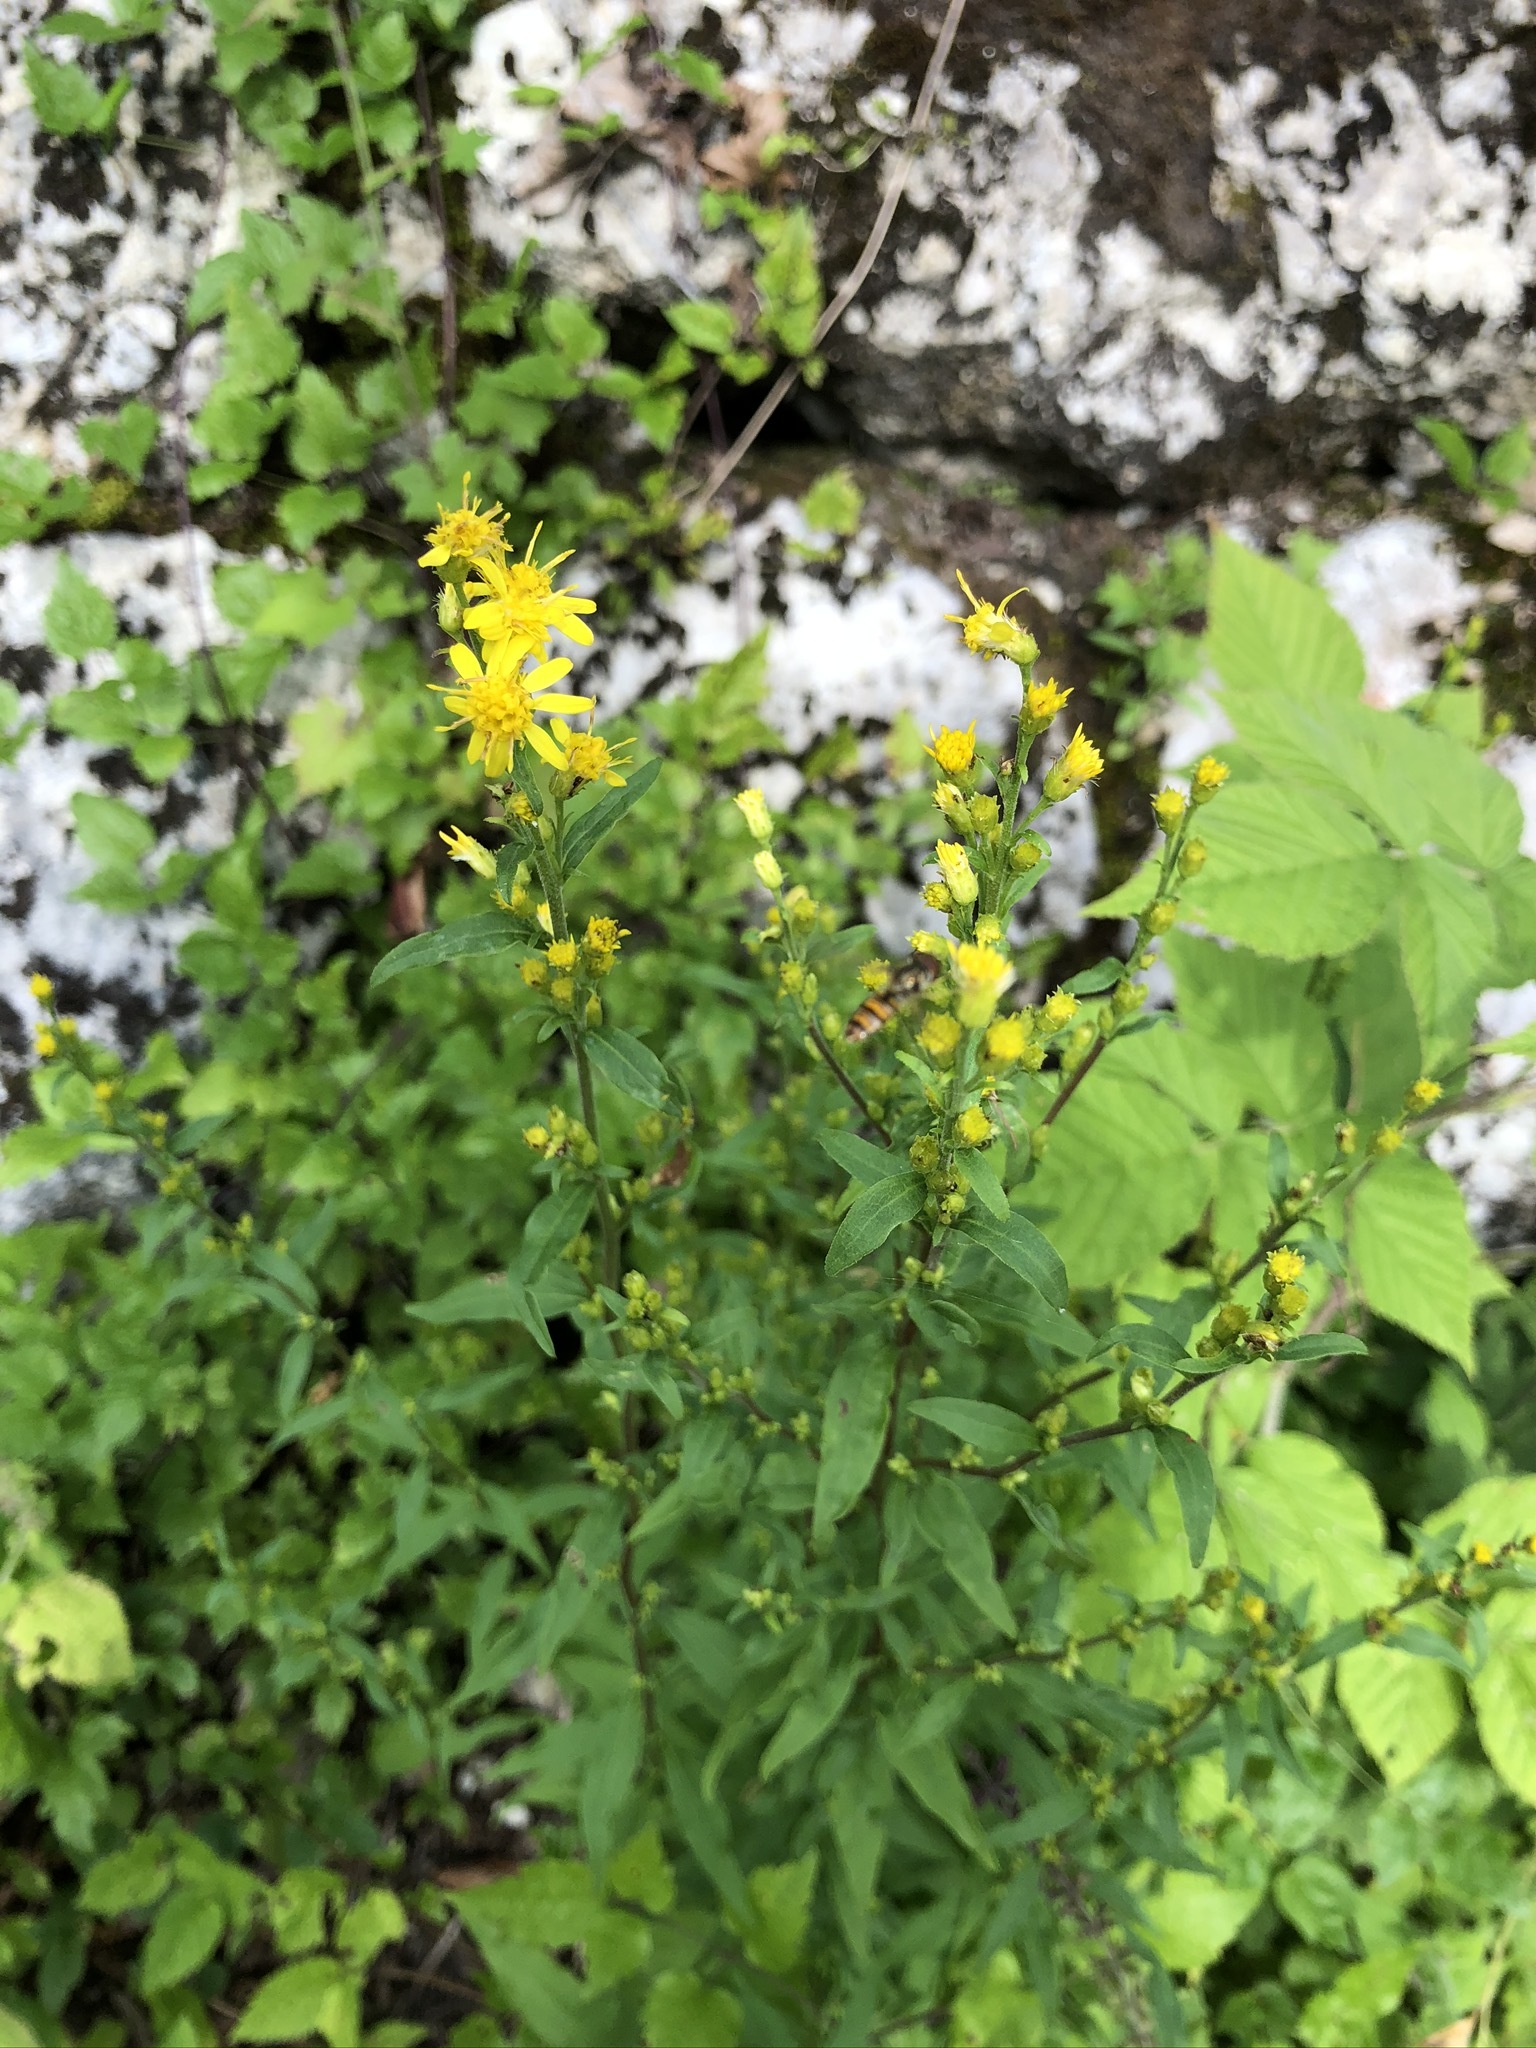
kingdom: Plantae
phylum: Tracheophyta
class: Magnoliopsida
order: Asterales
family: Asteraceae
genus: Solidago
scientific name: Solidago virgaurea
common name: Goldenrod
